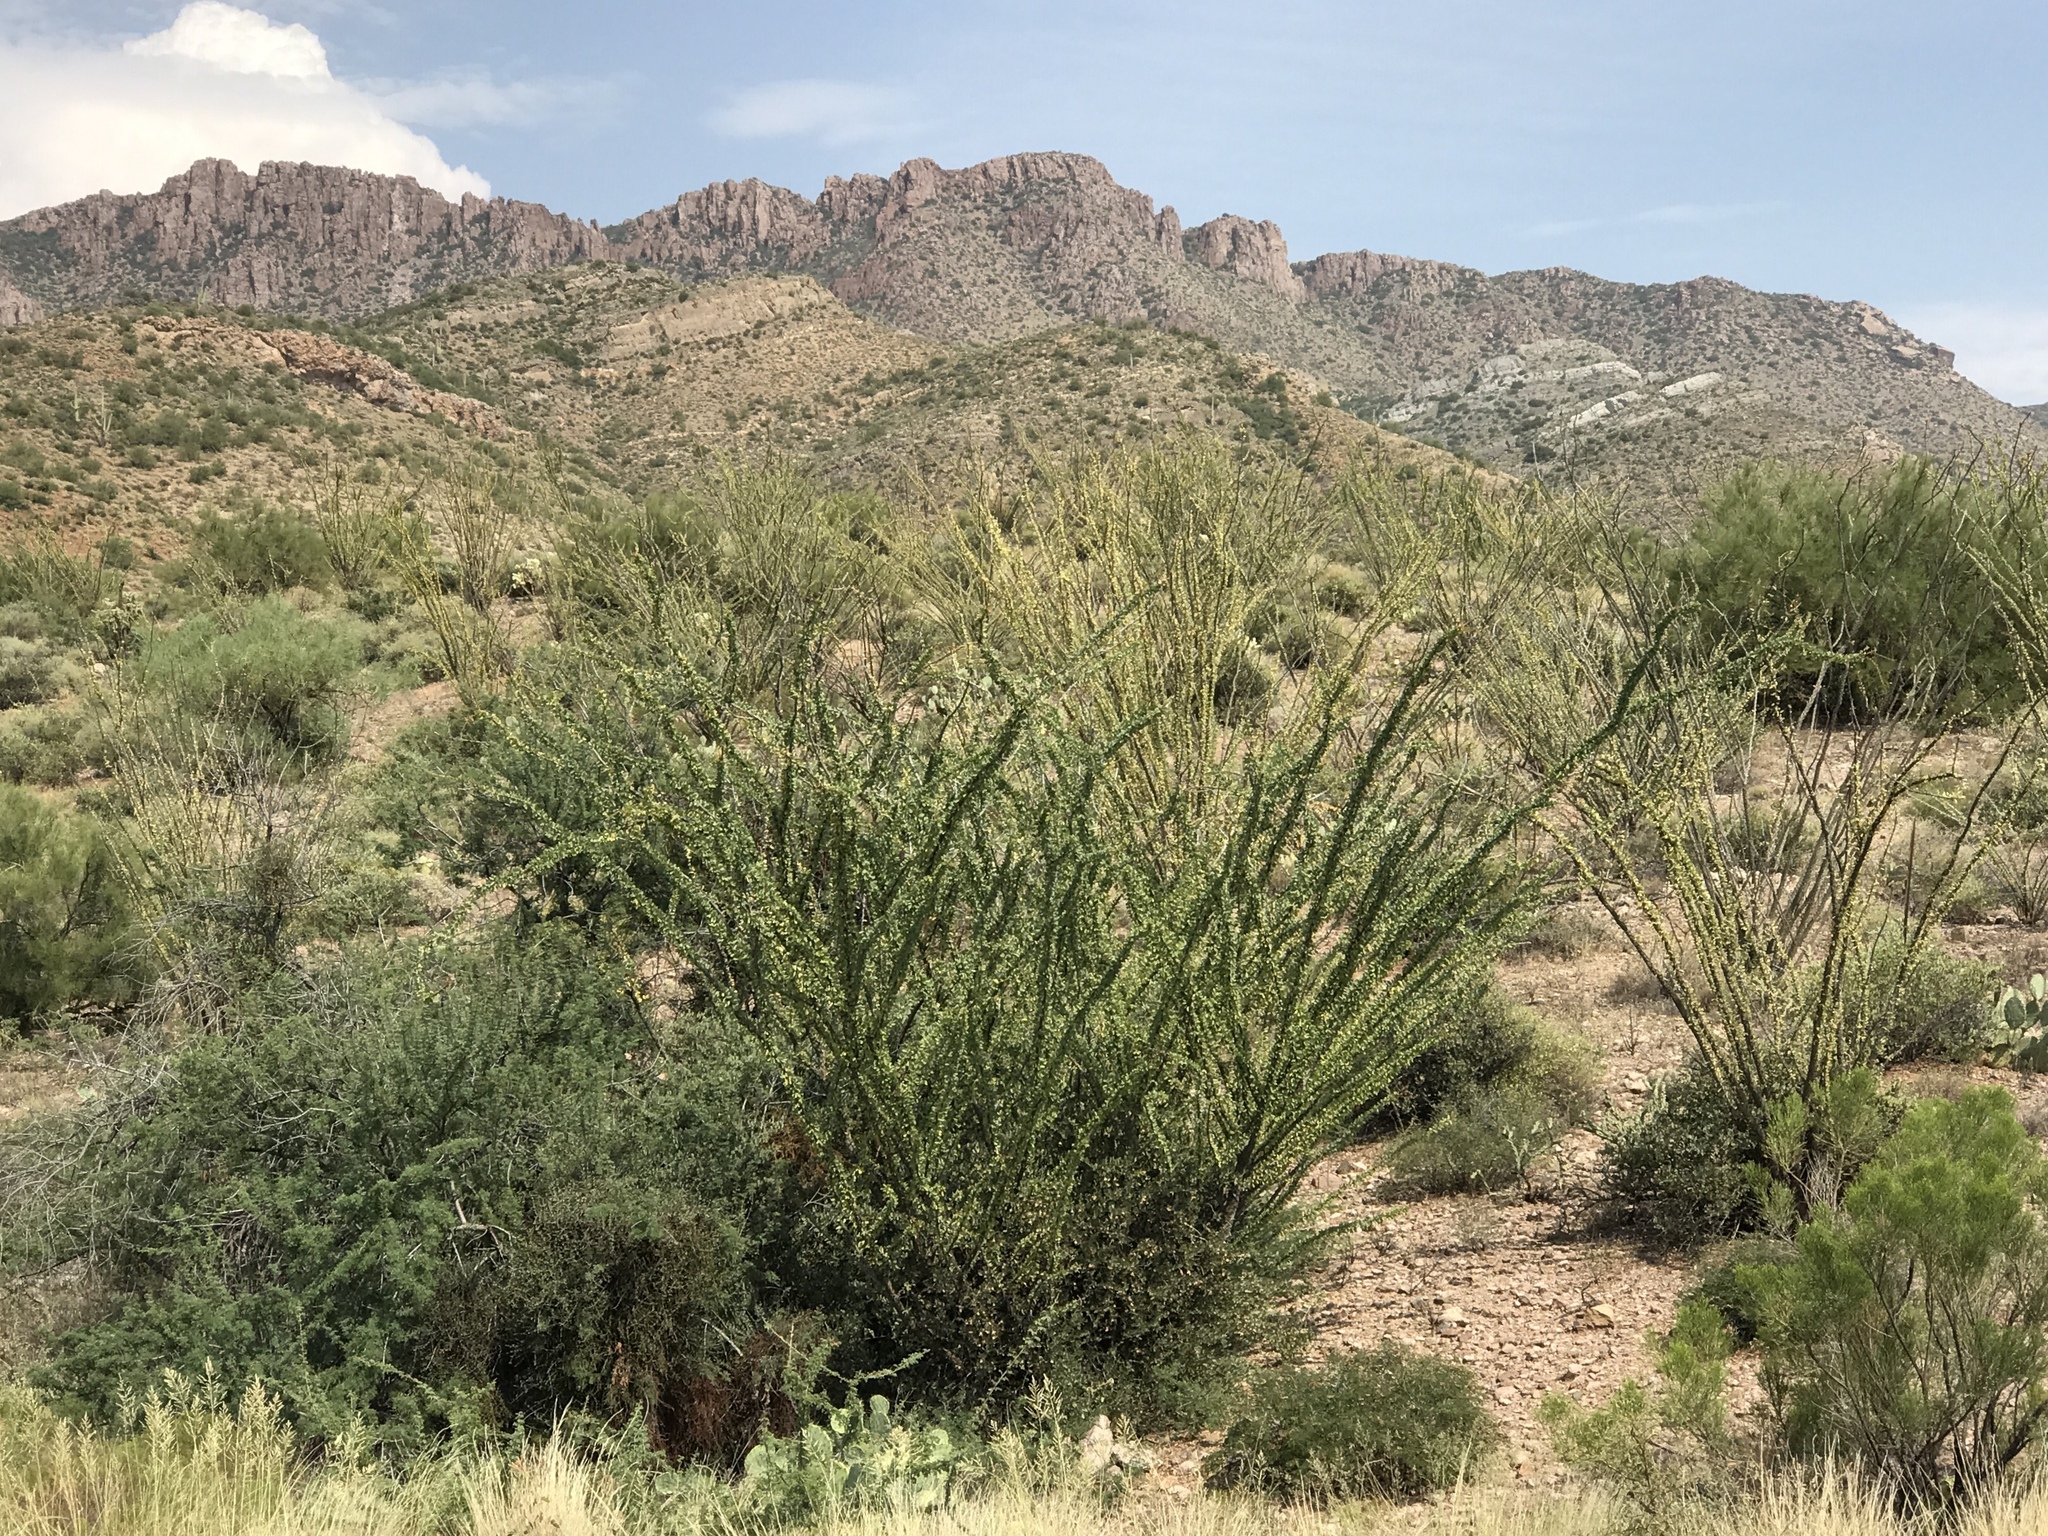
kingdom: Plantae
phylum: Tracheophyta
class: Magnoliopsida
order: Ericales
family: Fouquieriaceae
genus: Fouquieria
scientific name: Fouquieria splendens
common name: Vine-cactus
